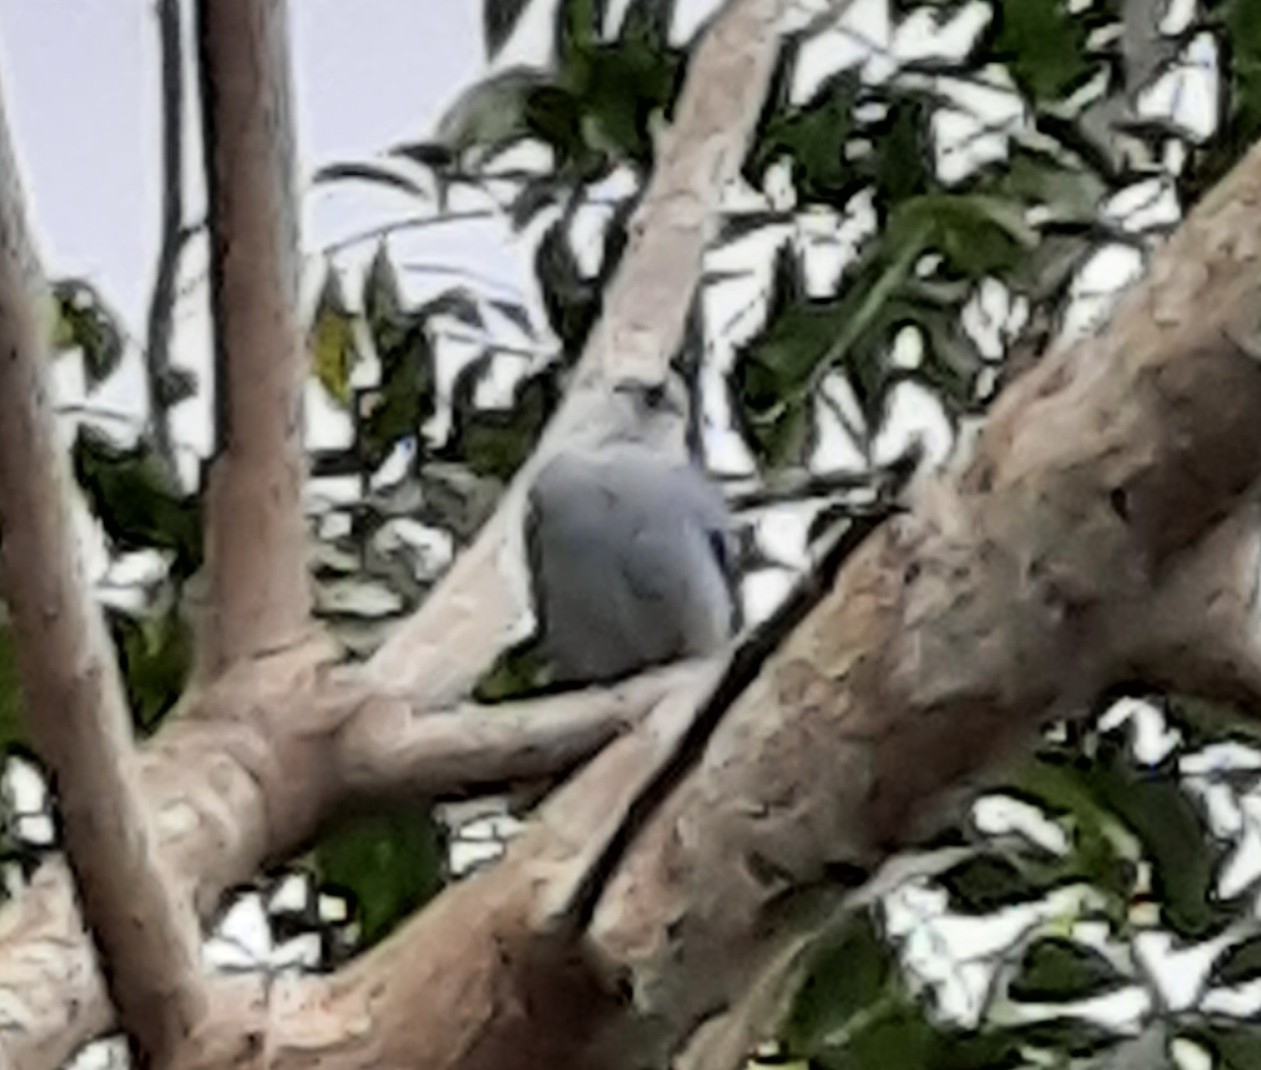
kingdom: Animalia
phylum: Chordata
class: Aves
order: Passeriformes
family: Thraupidae
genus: Thraupis
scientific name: Thraupis episcopus
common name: Blue-grey tanager
